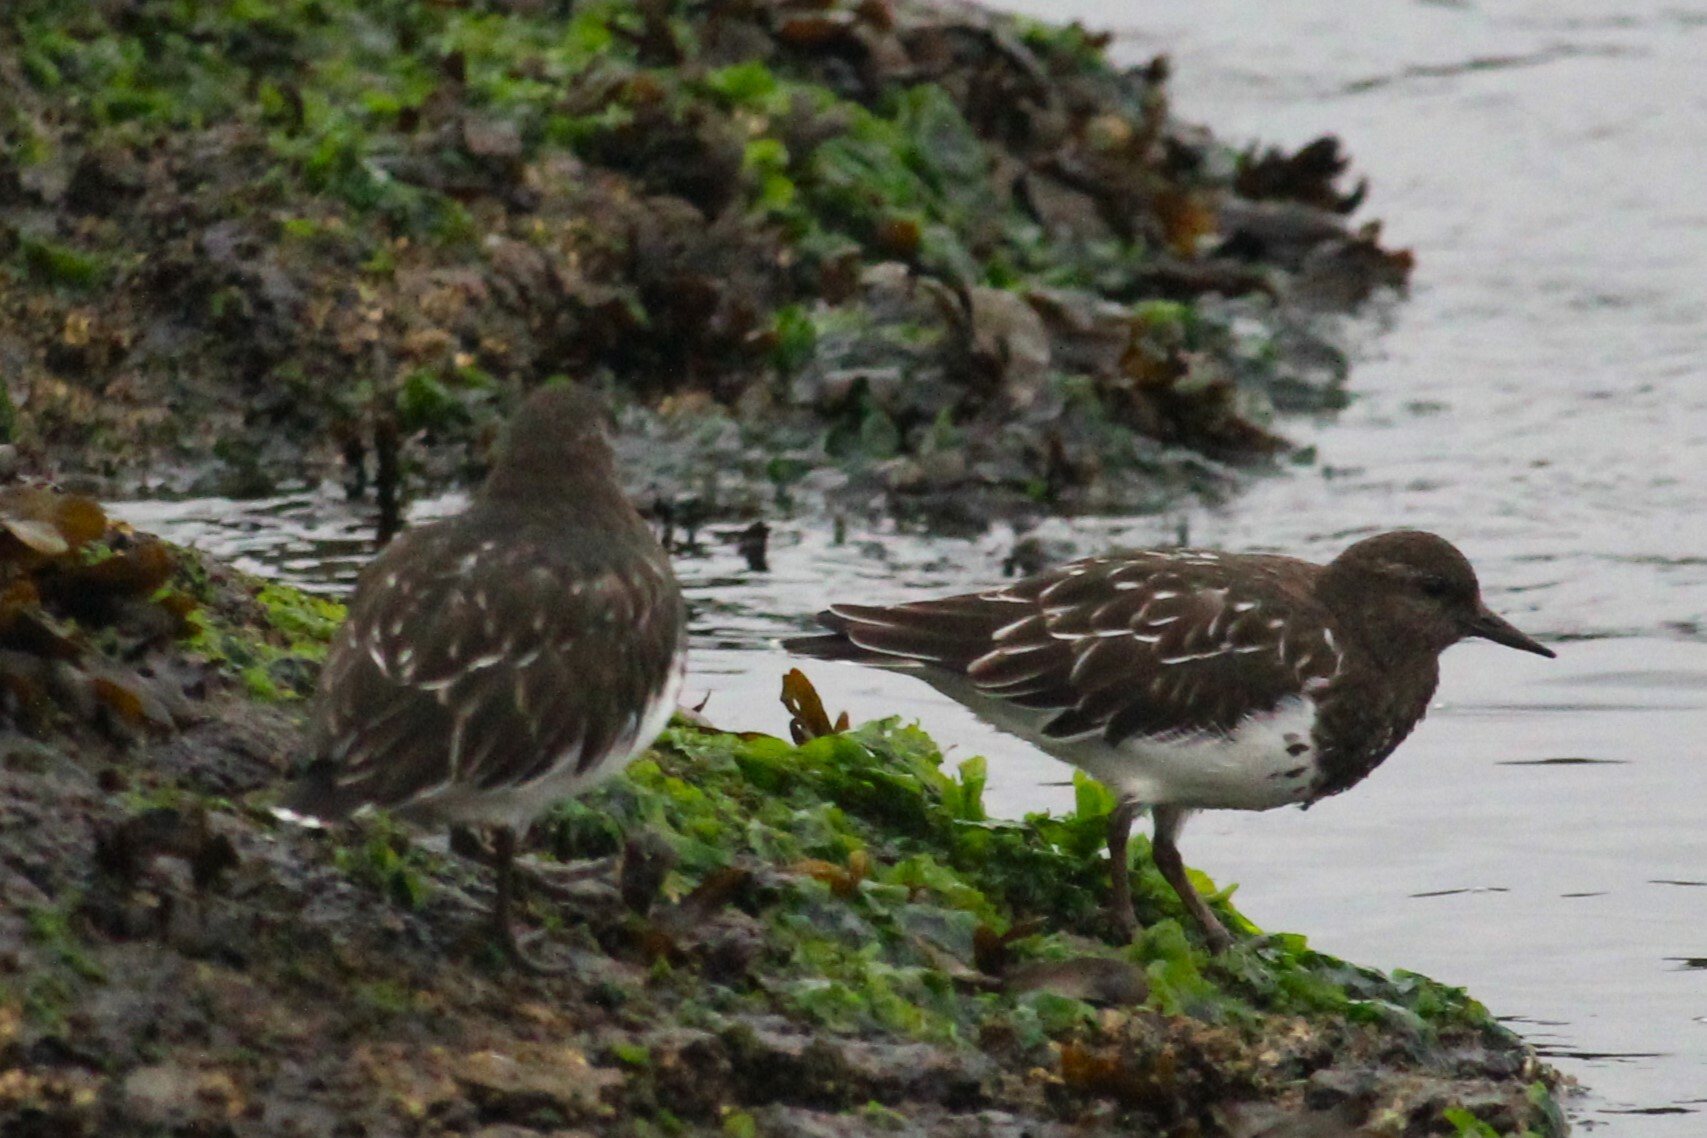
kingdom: Animalia
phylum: Chordata
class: Aves
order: Charadriiformes
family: Scolopacidae
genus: Arenaria
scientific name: Arenaria melanocephala
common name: Black turnstone
